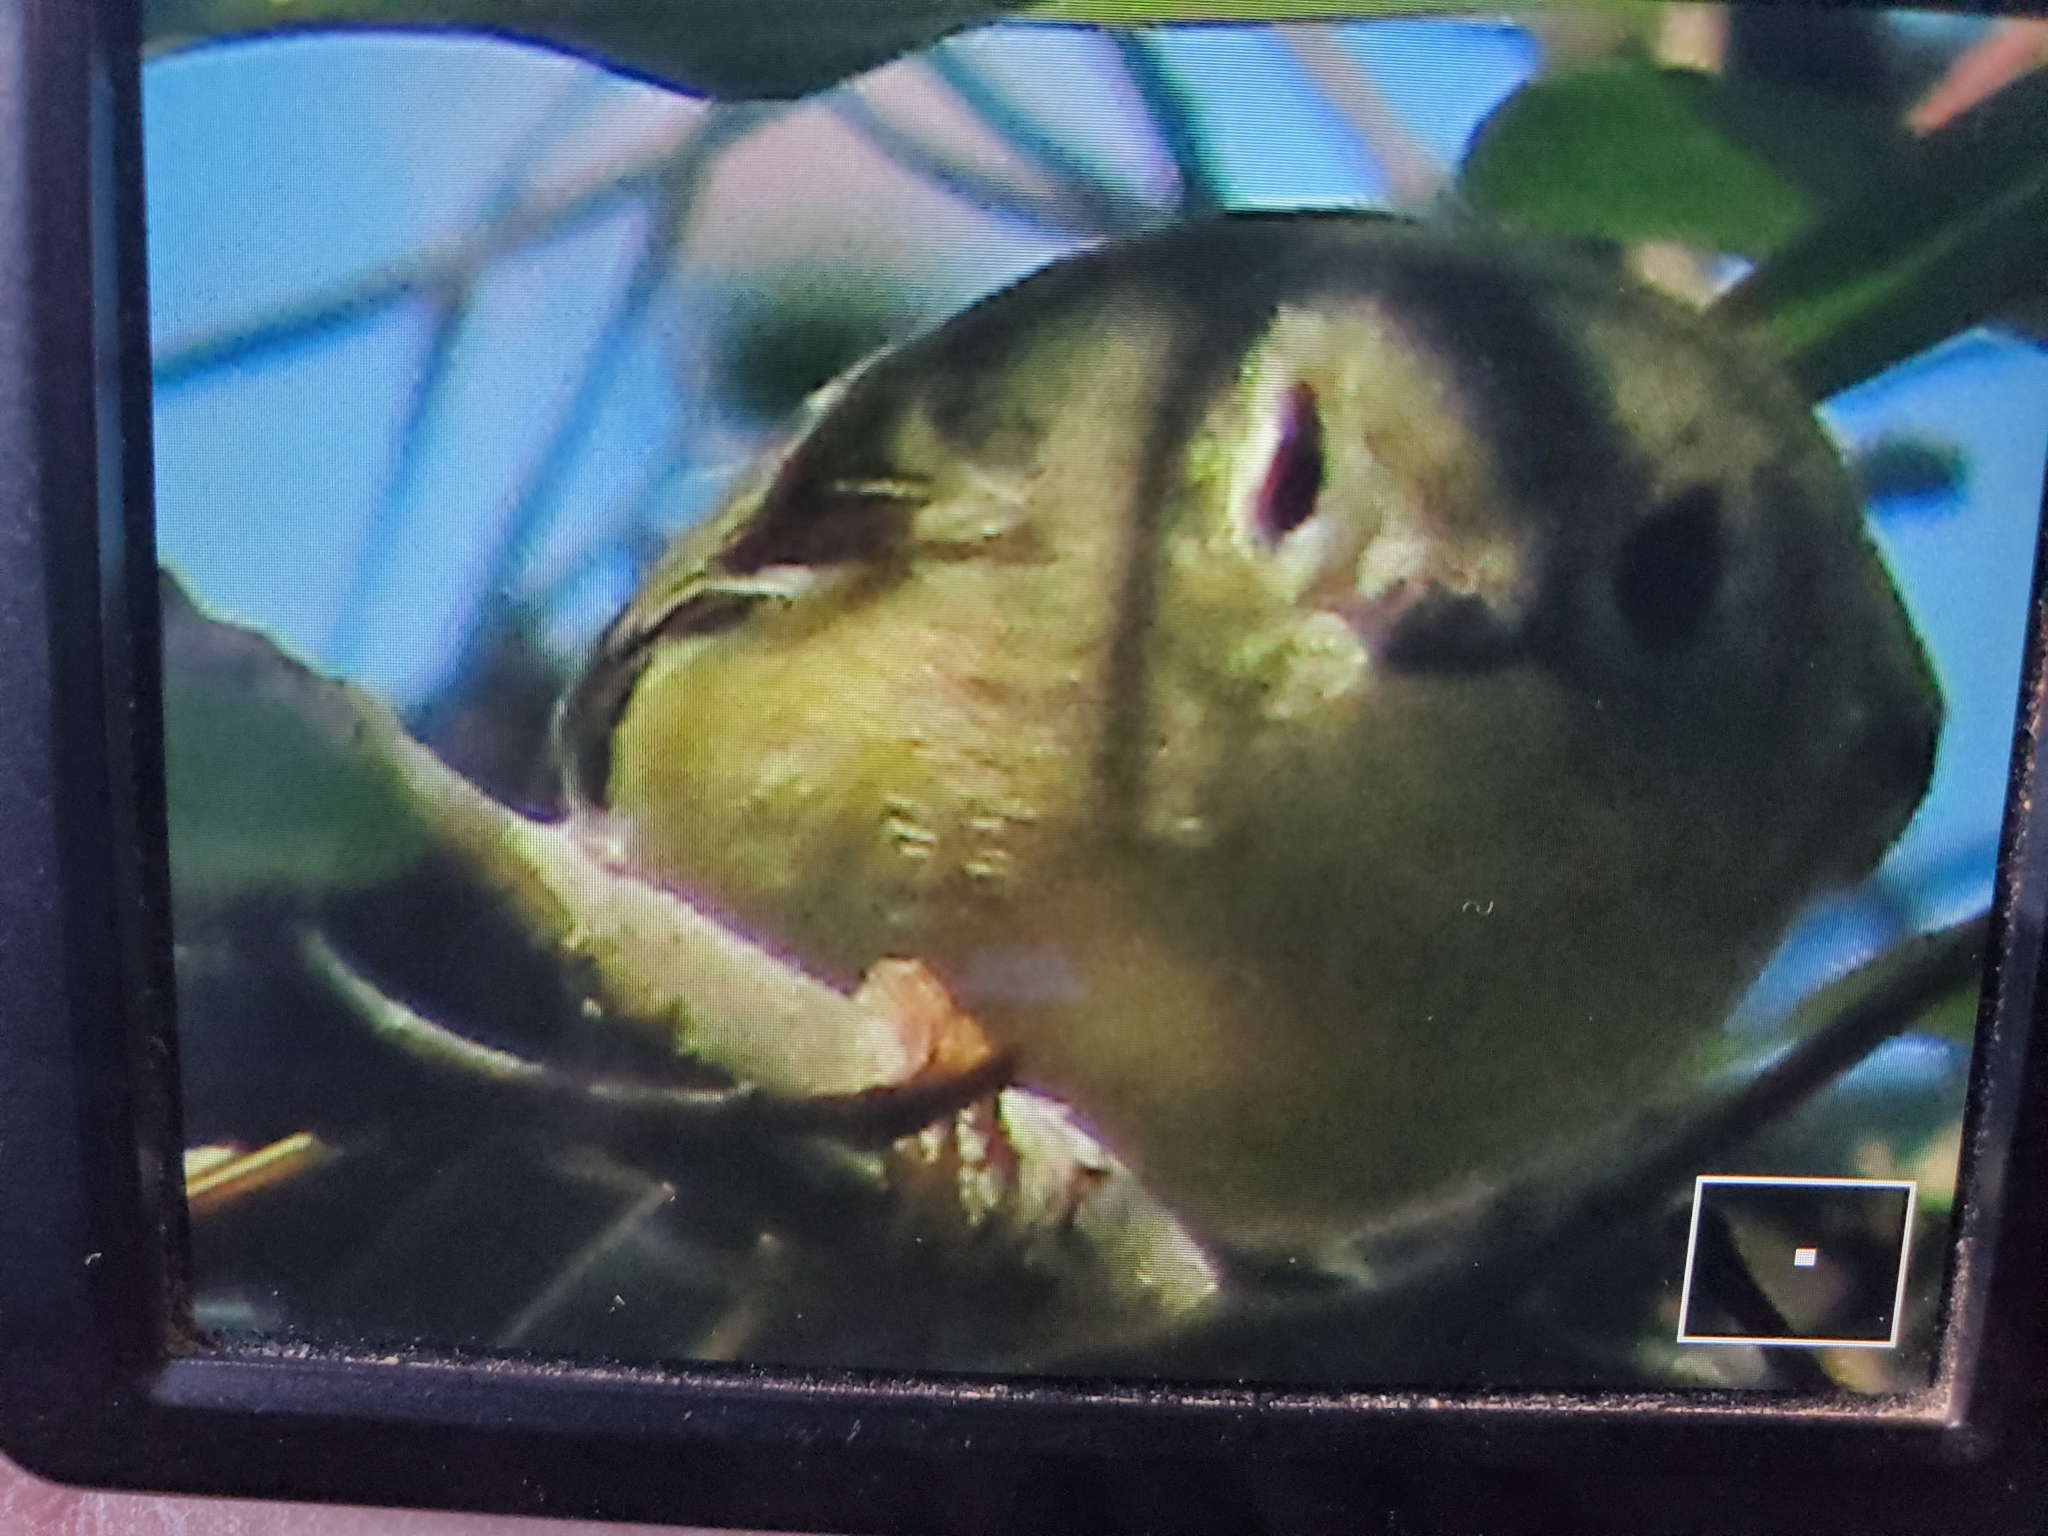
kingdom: Animalia
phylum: Chordata
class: Aves
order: Passeriformes
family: Regulidae
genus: Regulus
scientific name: Regulus calendula
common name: Ruby-crowned kinglet
